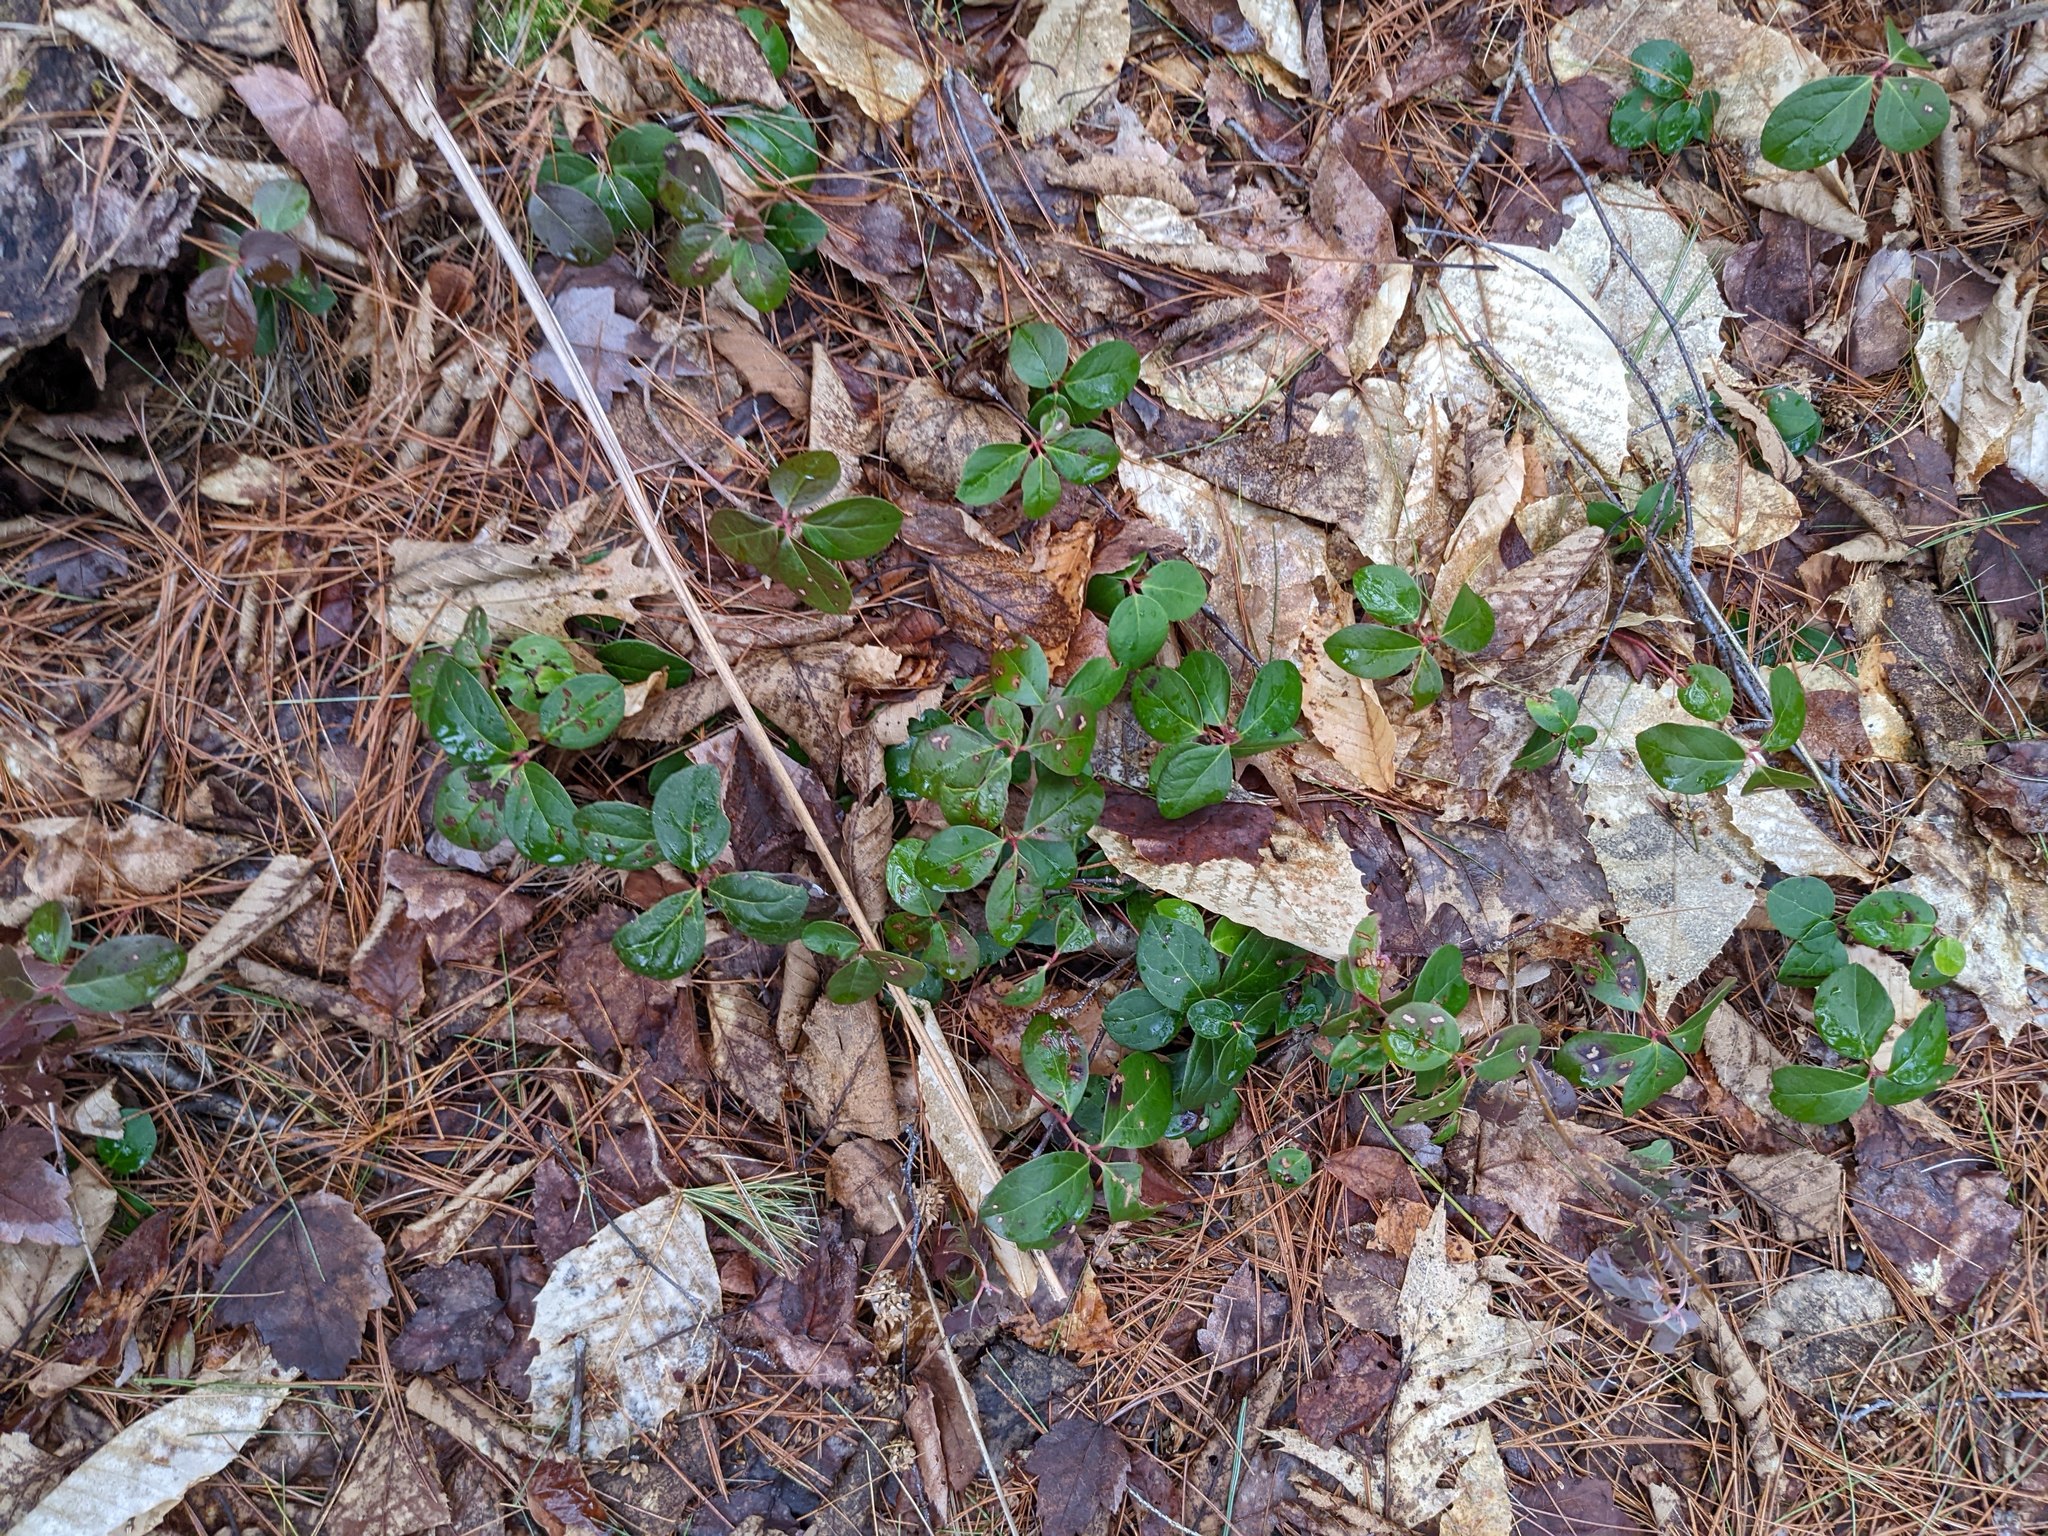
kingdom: Plantae
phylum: Tracheophyta
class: Magnoliopsida
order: Ericales
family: Ericaceae
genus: Gaultheria
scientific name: Gaultheria procumbens
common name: Checkerberry
